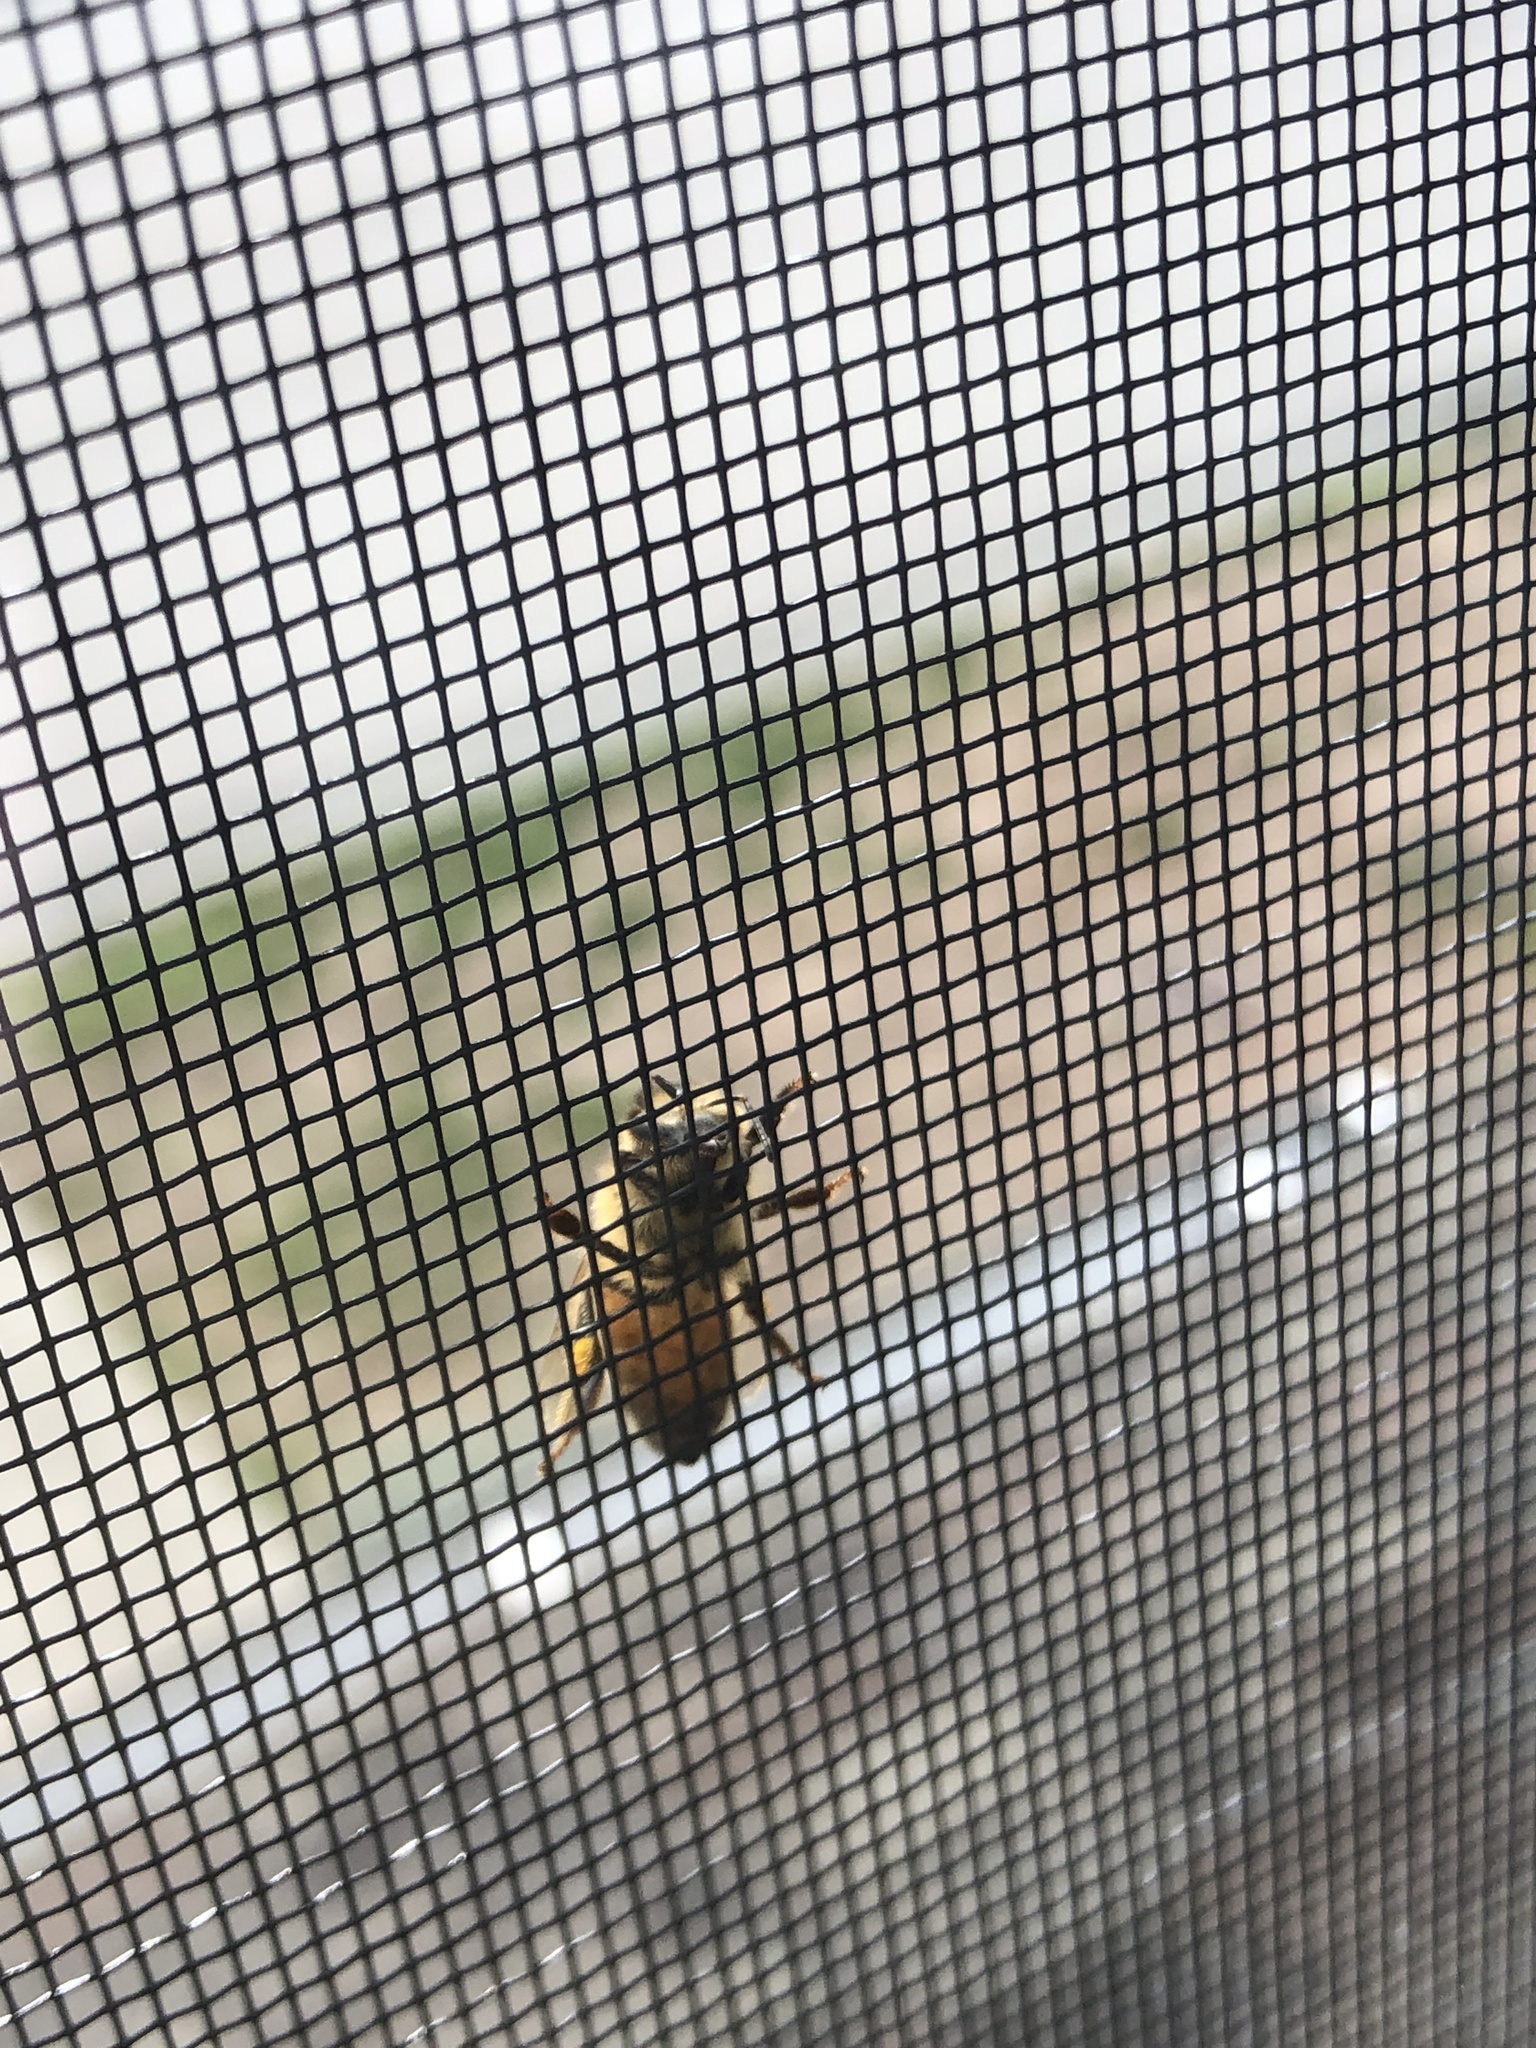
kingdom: Animalia
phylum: Arthropoda
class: Insecta
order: Hymenoptera
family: Apidae
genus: Apis
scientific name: Apis mellifera
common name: Honey bee
